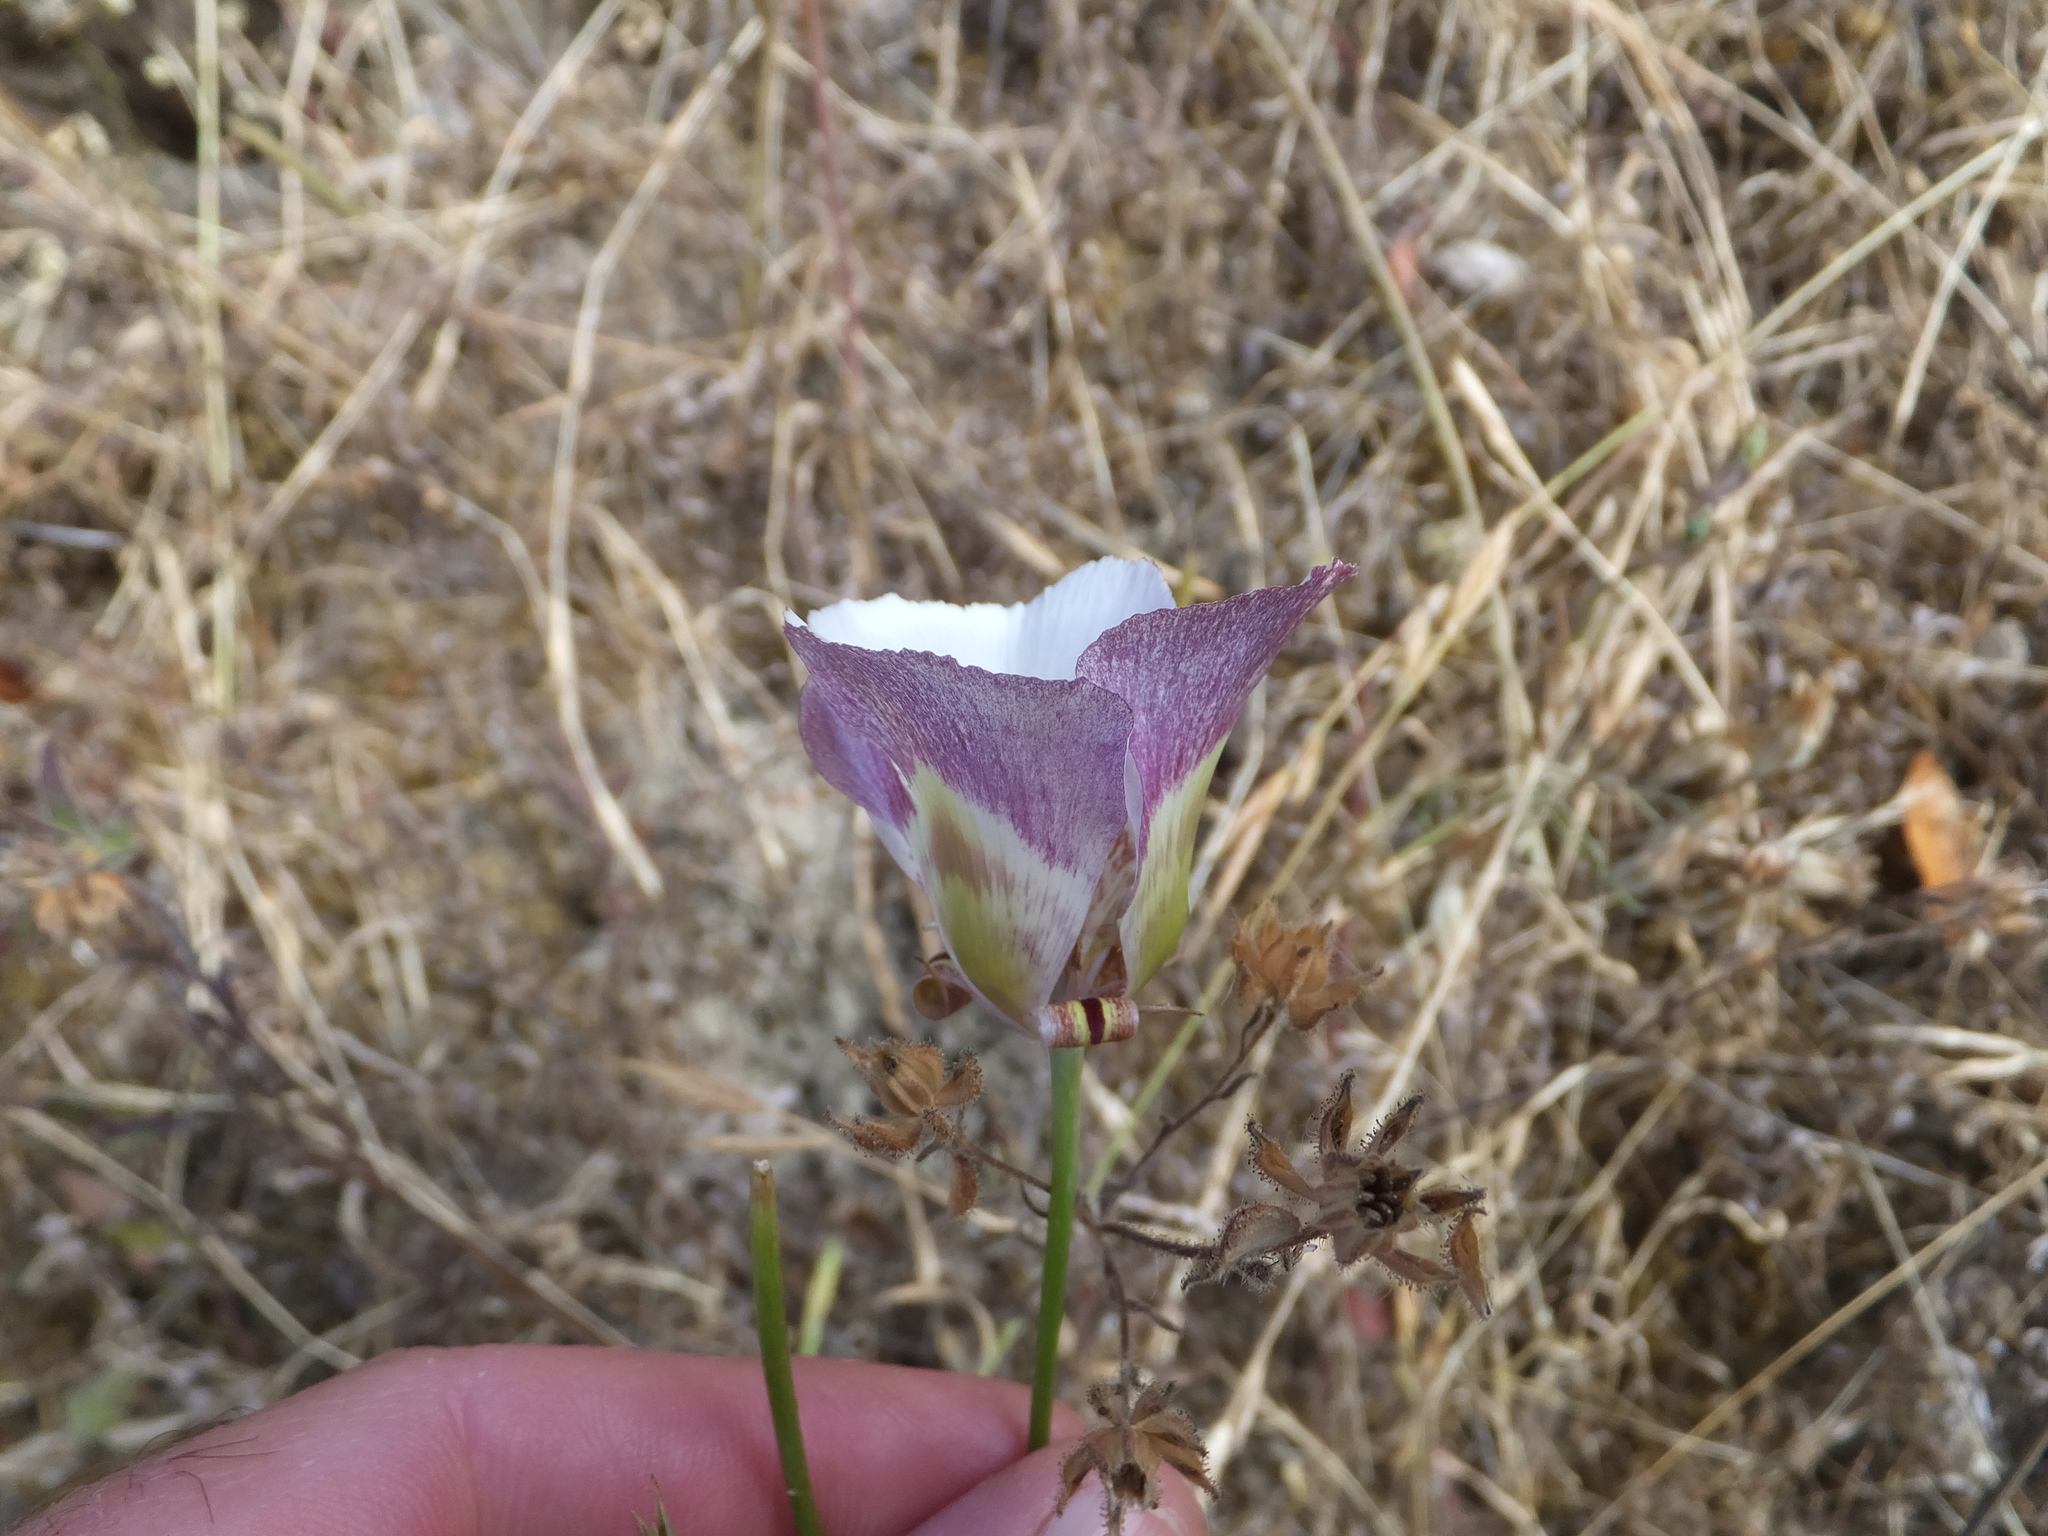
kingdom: Plantae
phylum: Tracheophyta
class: Liliopsida
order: Liliales
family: Liliaceae
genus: Calochortus
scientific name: Calochortus argillosus
